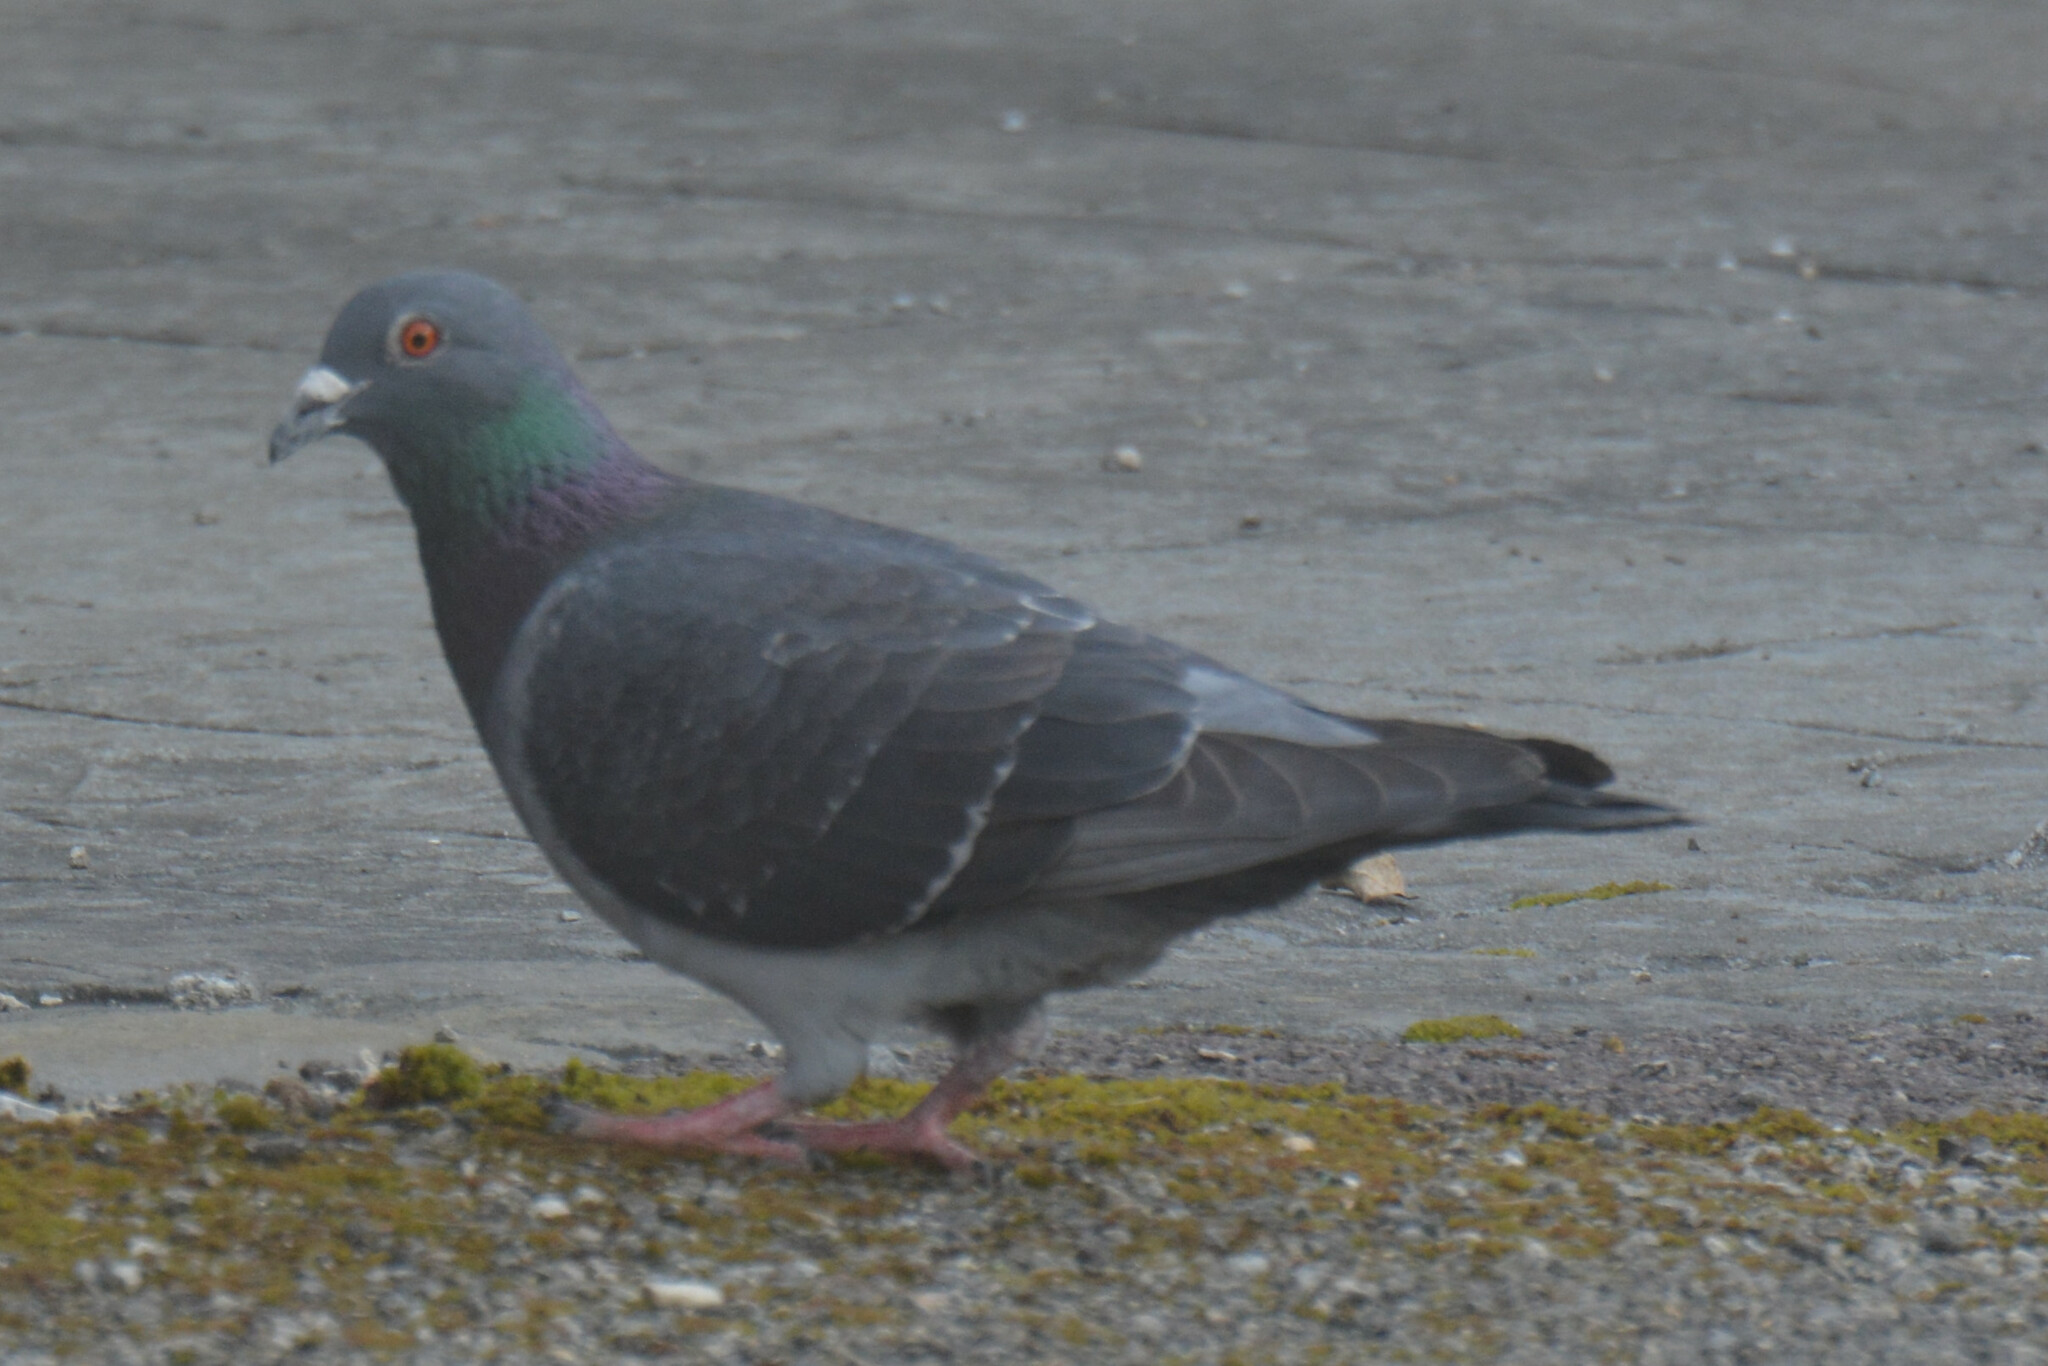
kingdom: Animalia
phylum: Chordata
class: Aves
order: Columbiformes
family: Columbidae
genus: Columba
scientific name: Columba livia
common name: Rock pigeon
